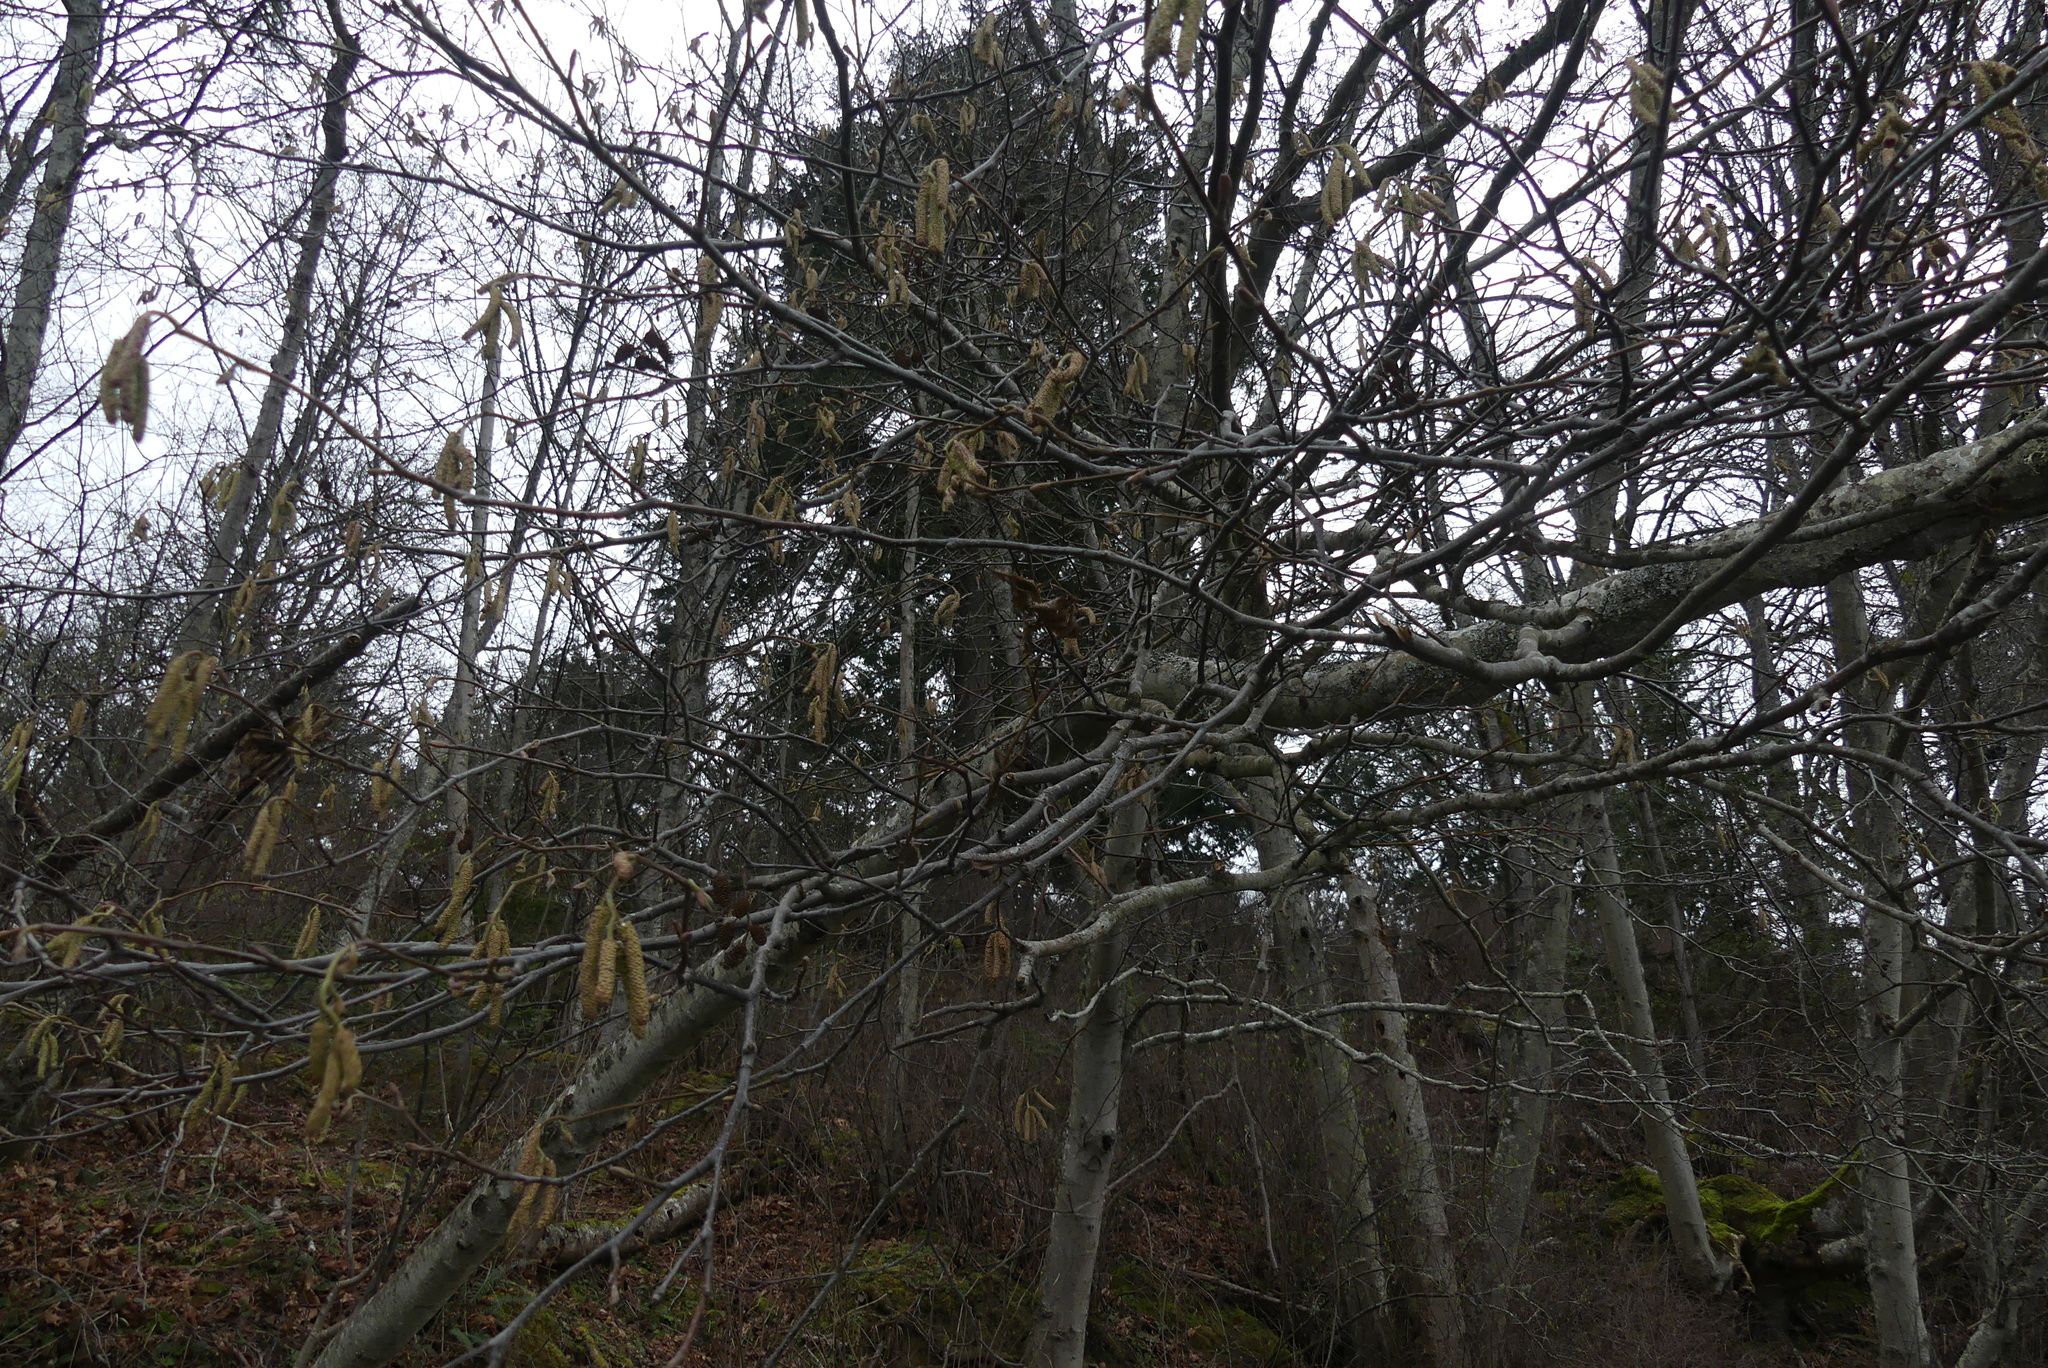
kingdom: Plantae
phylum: Tracheophyta
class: Magnoliopsida
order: Fagales
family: Betulaceae
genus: Alnus
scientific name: Alnus rubra
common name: Red alder
